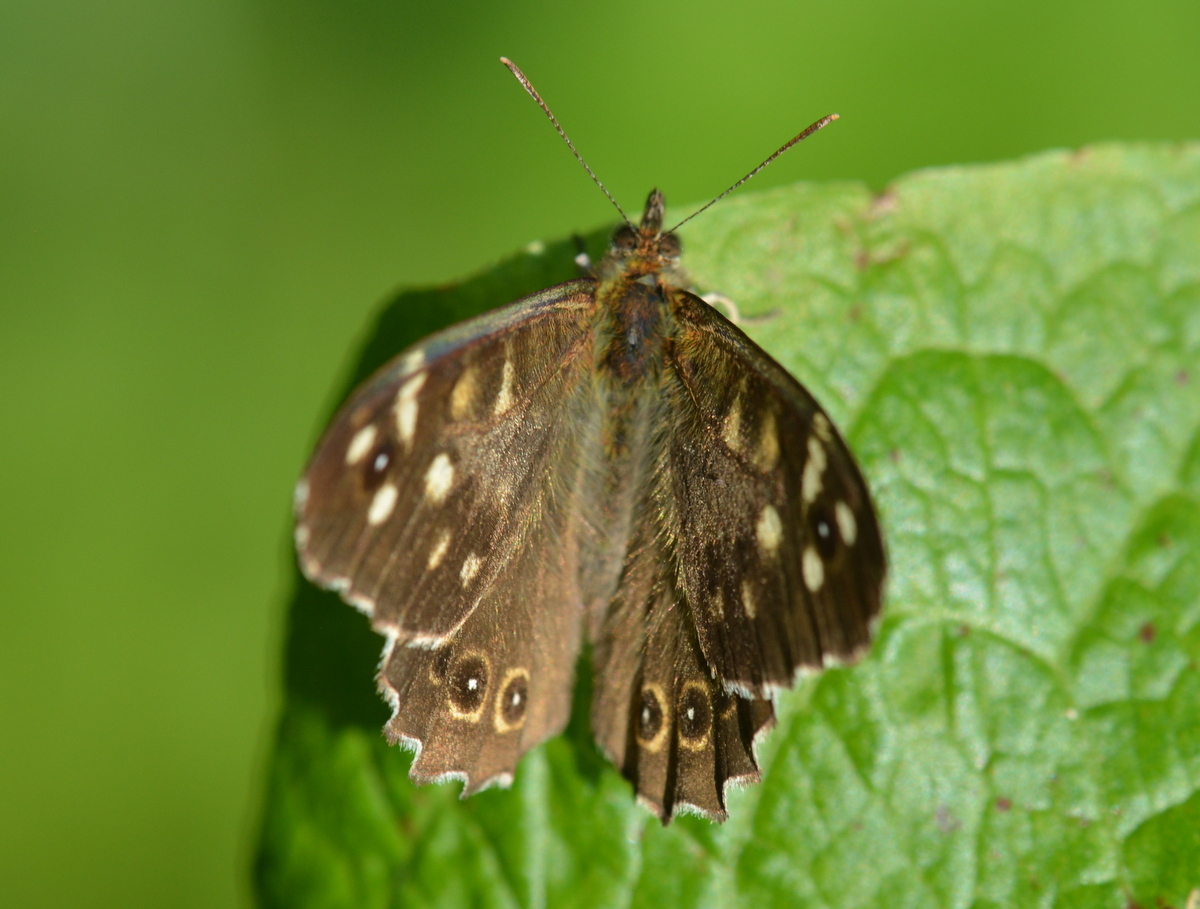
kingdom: Animalia
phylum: Arthropoda
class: Insecta
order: Lepidoptera
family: Nymphalidae
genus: Pararge
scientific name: Pararge aegeria
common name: Speckled wood
